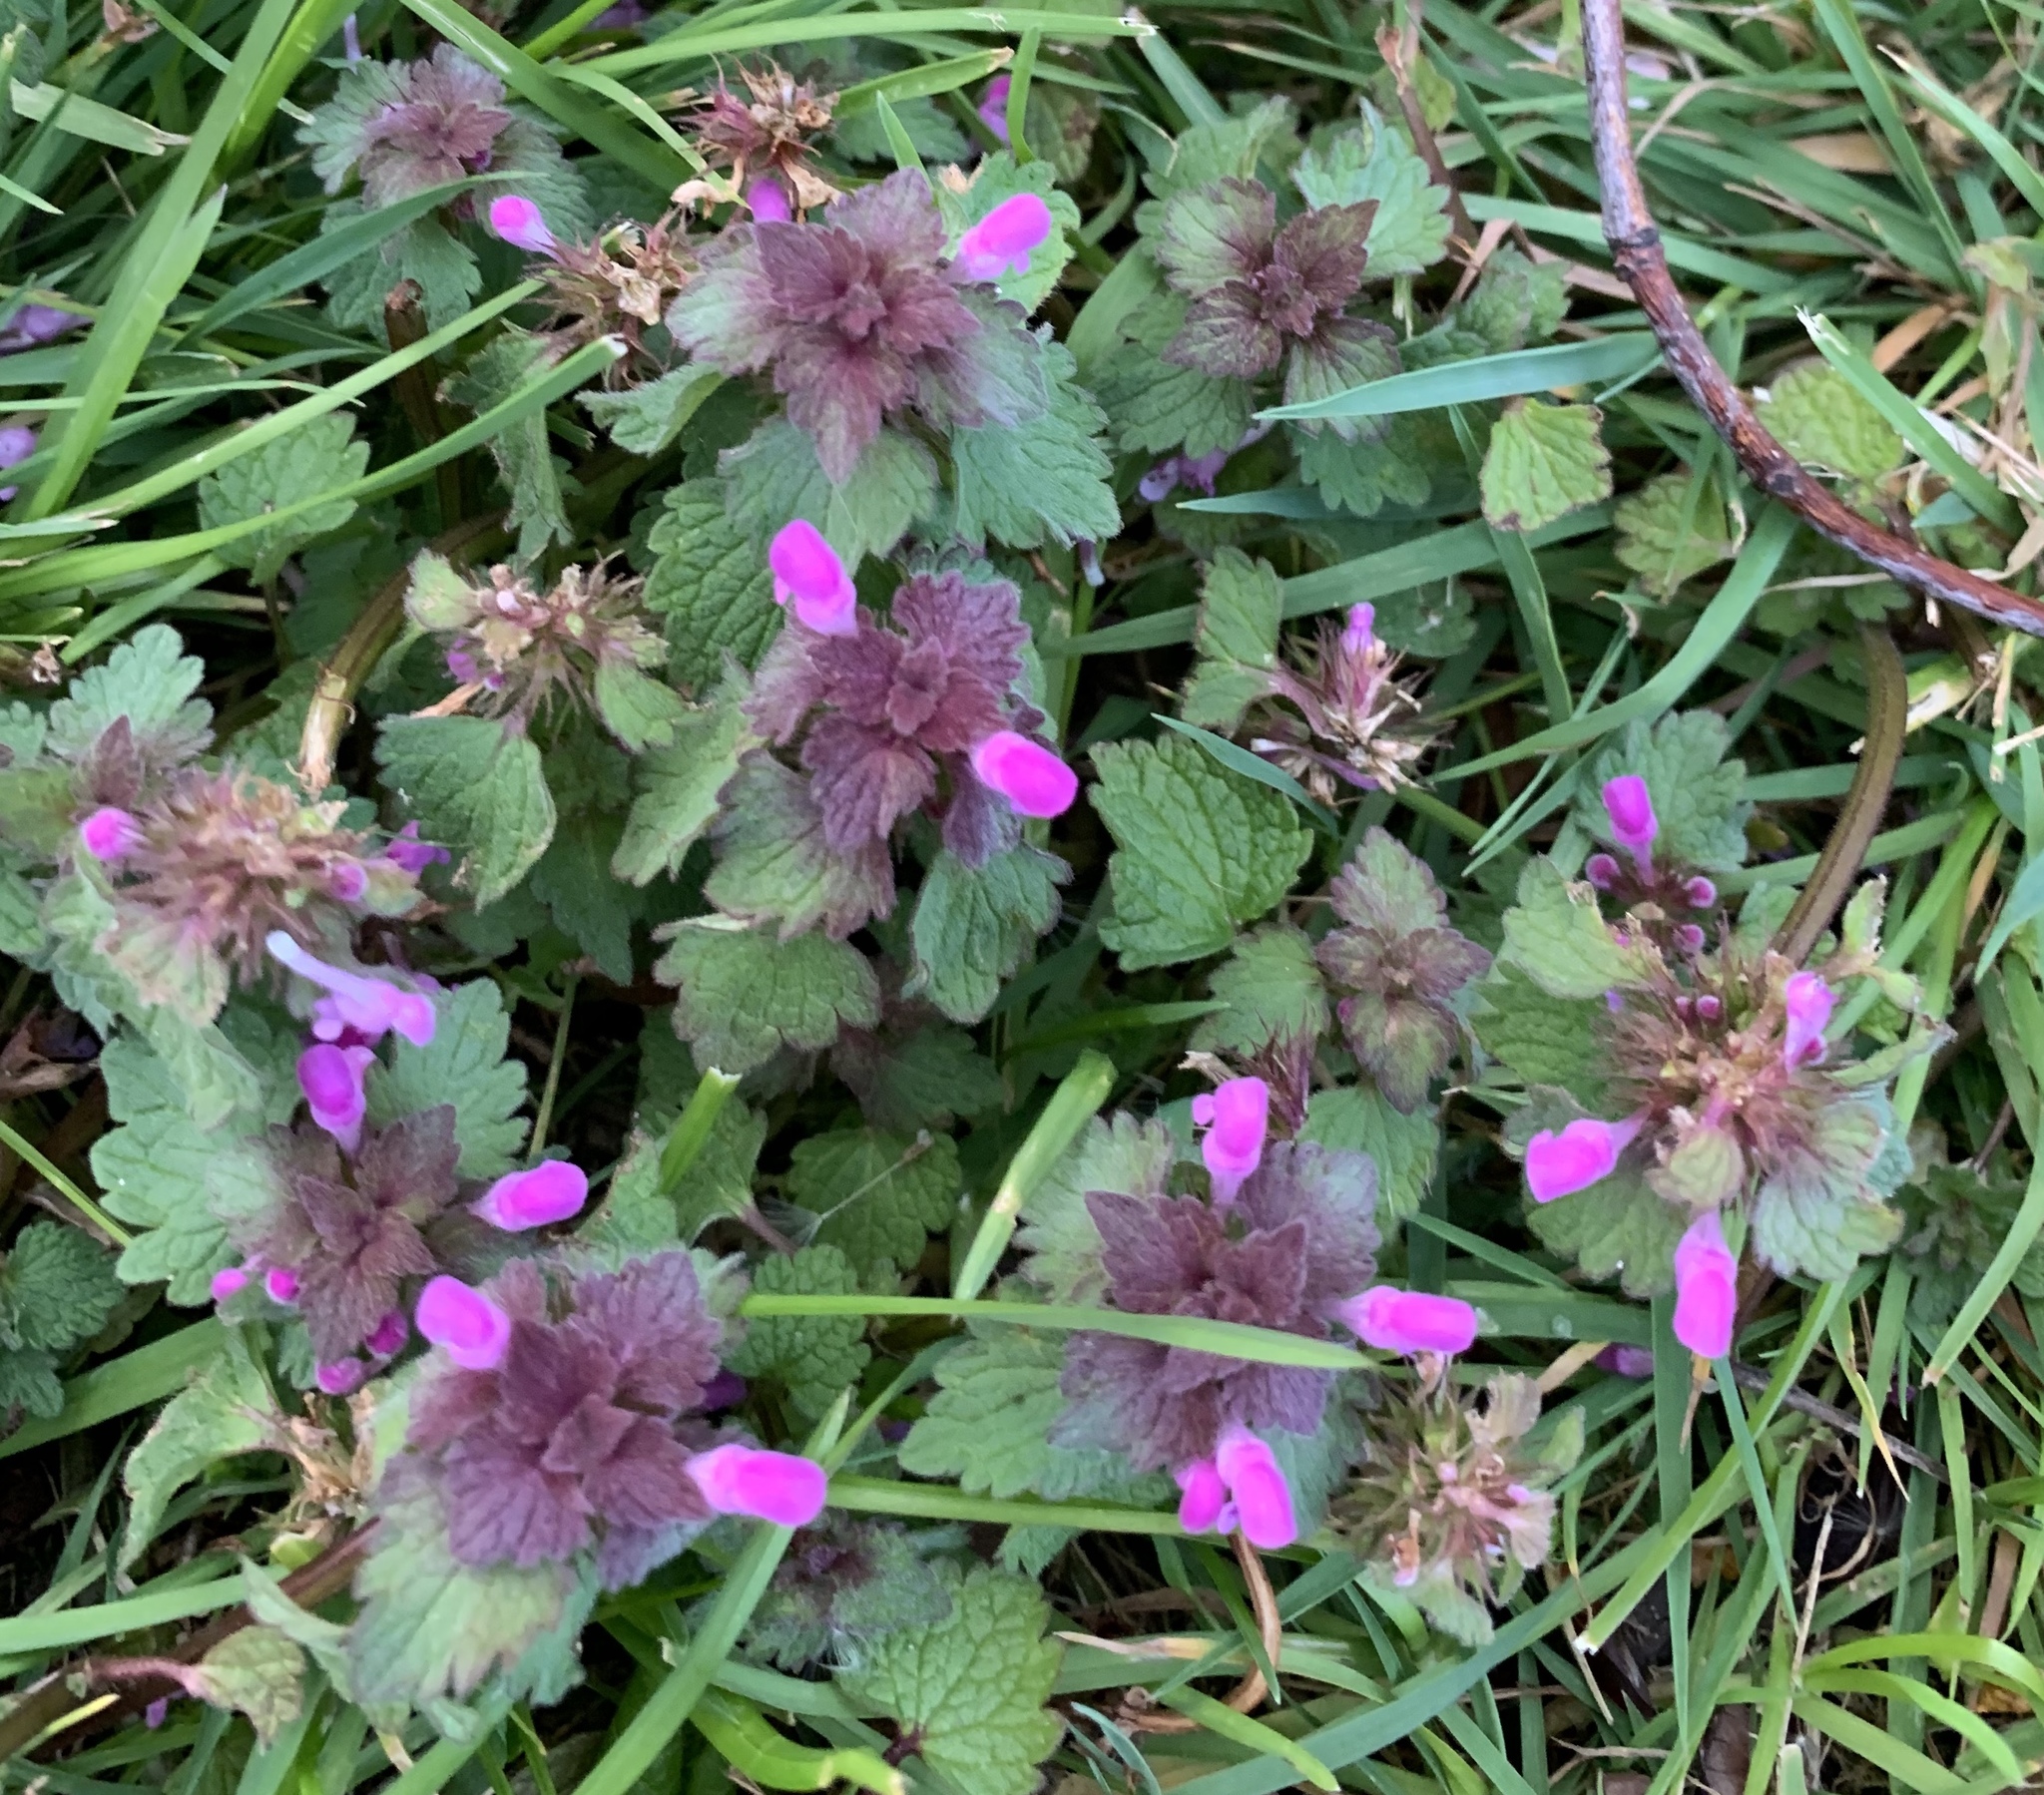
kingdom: Plantae
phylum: Tracheophyta
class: Magnoliopsida
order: Lamiales
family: Lamiaceae
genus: Lamium
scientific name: Lamium purpureum
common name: Red dead-nettle
